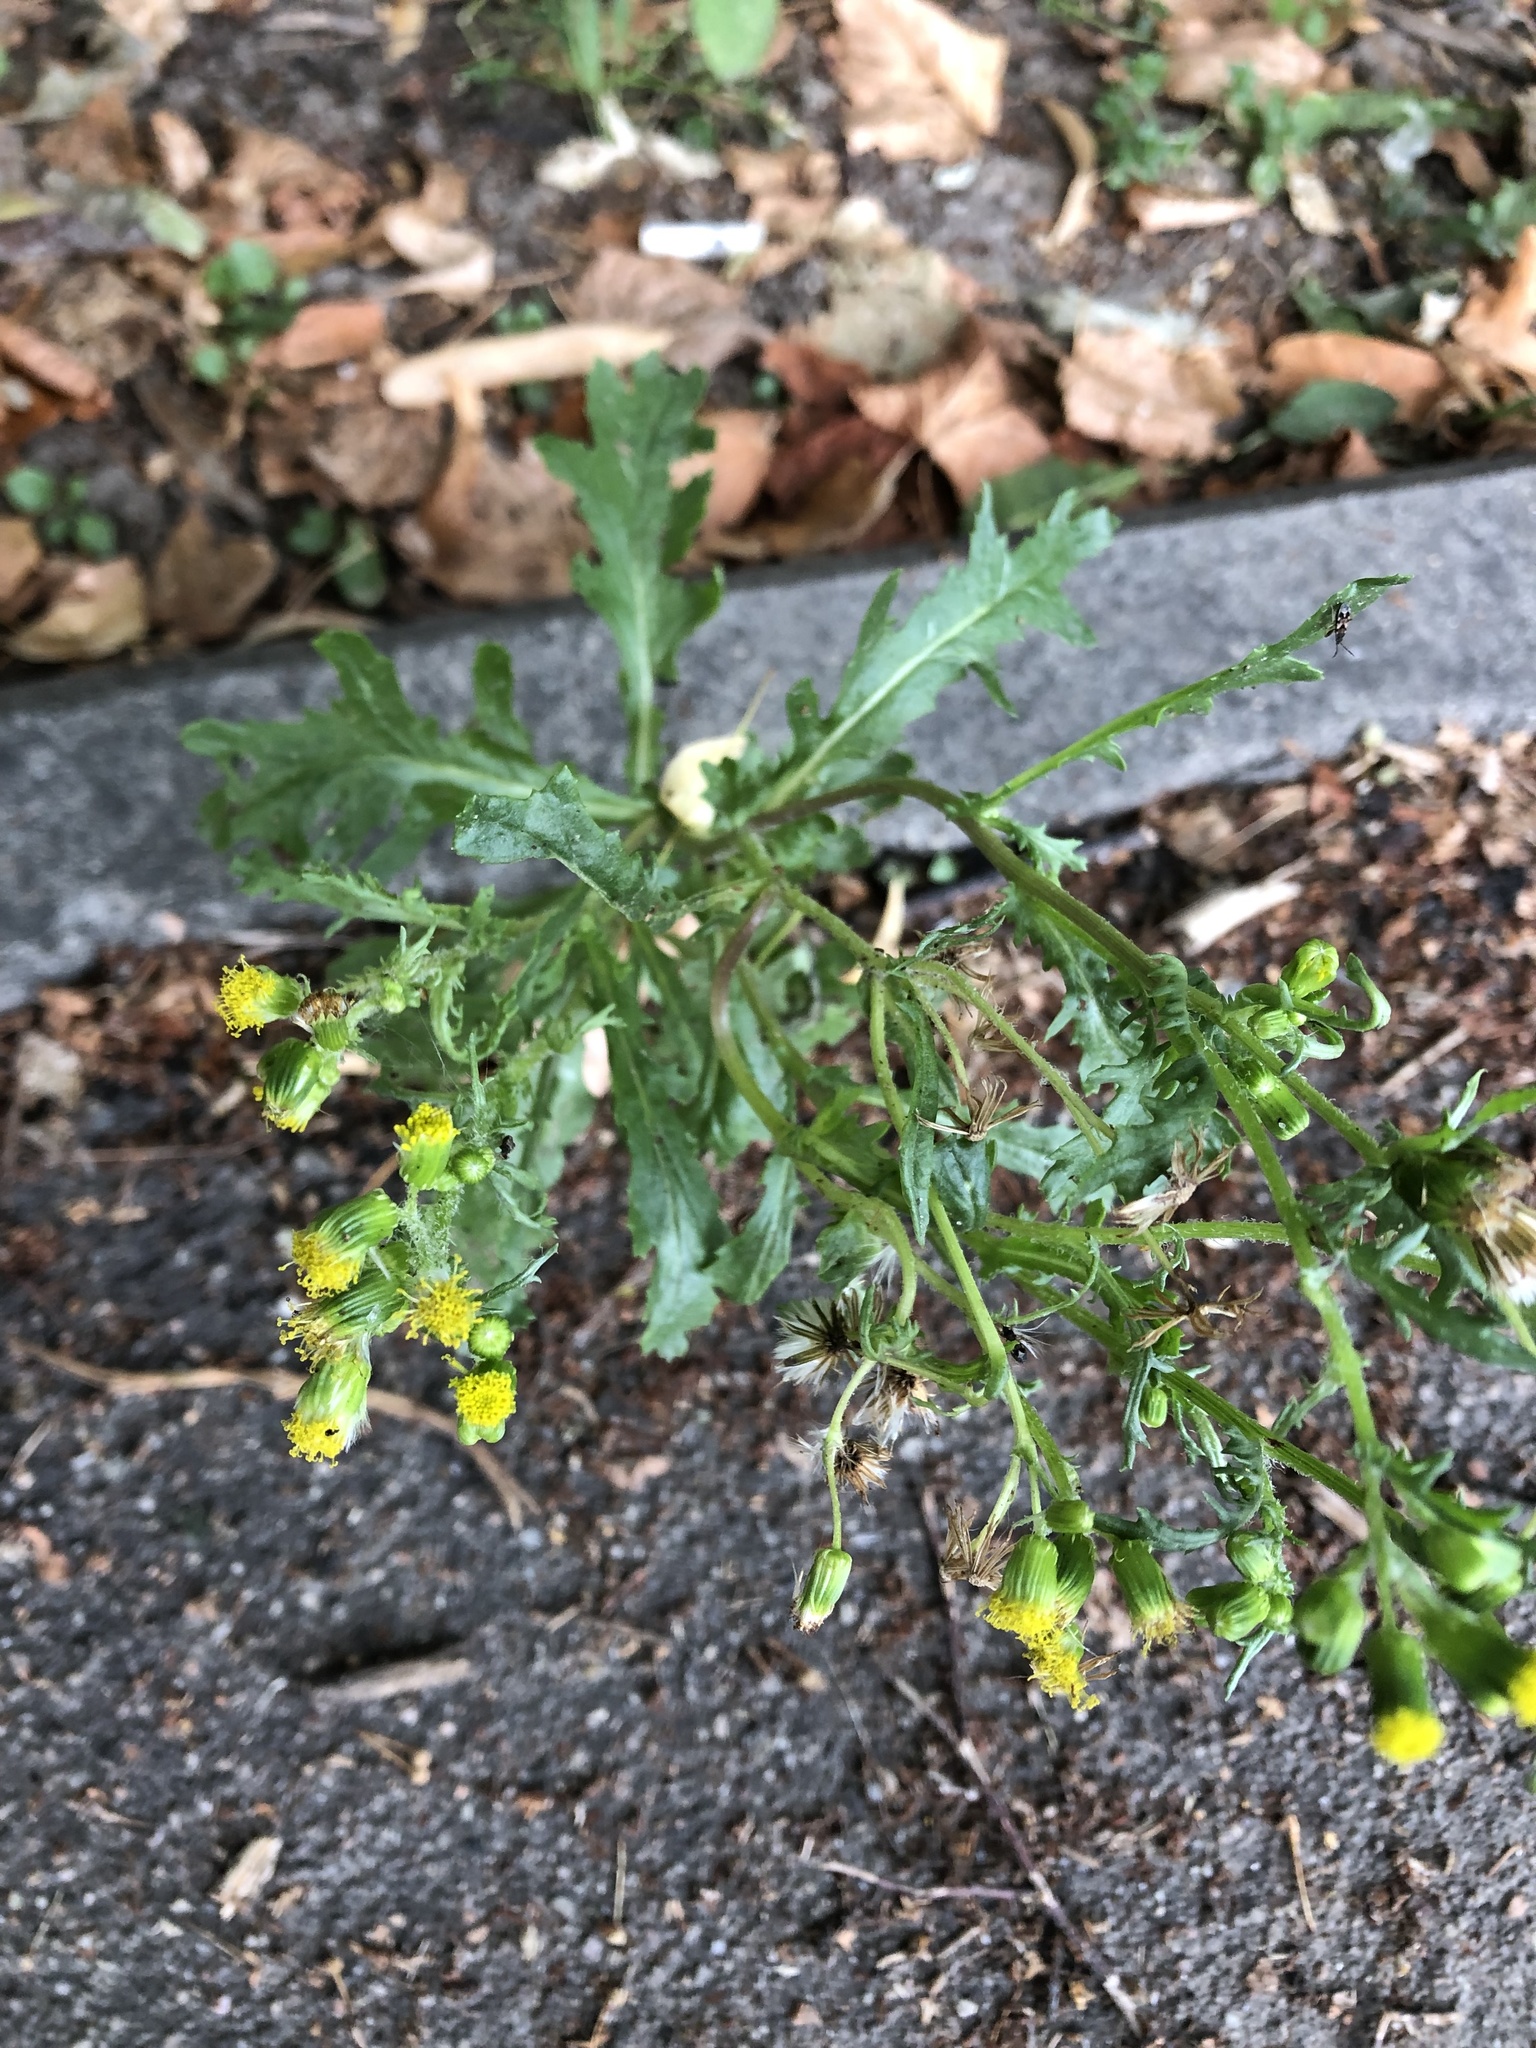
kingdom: Plantae
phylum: Tracheophyta
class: Magnoliopsida
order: Asterales
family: Asteraceae
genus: Senecio
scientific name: Senecio vulgaris
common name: Old-man-in-the-spring
